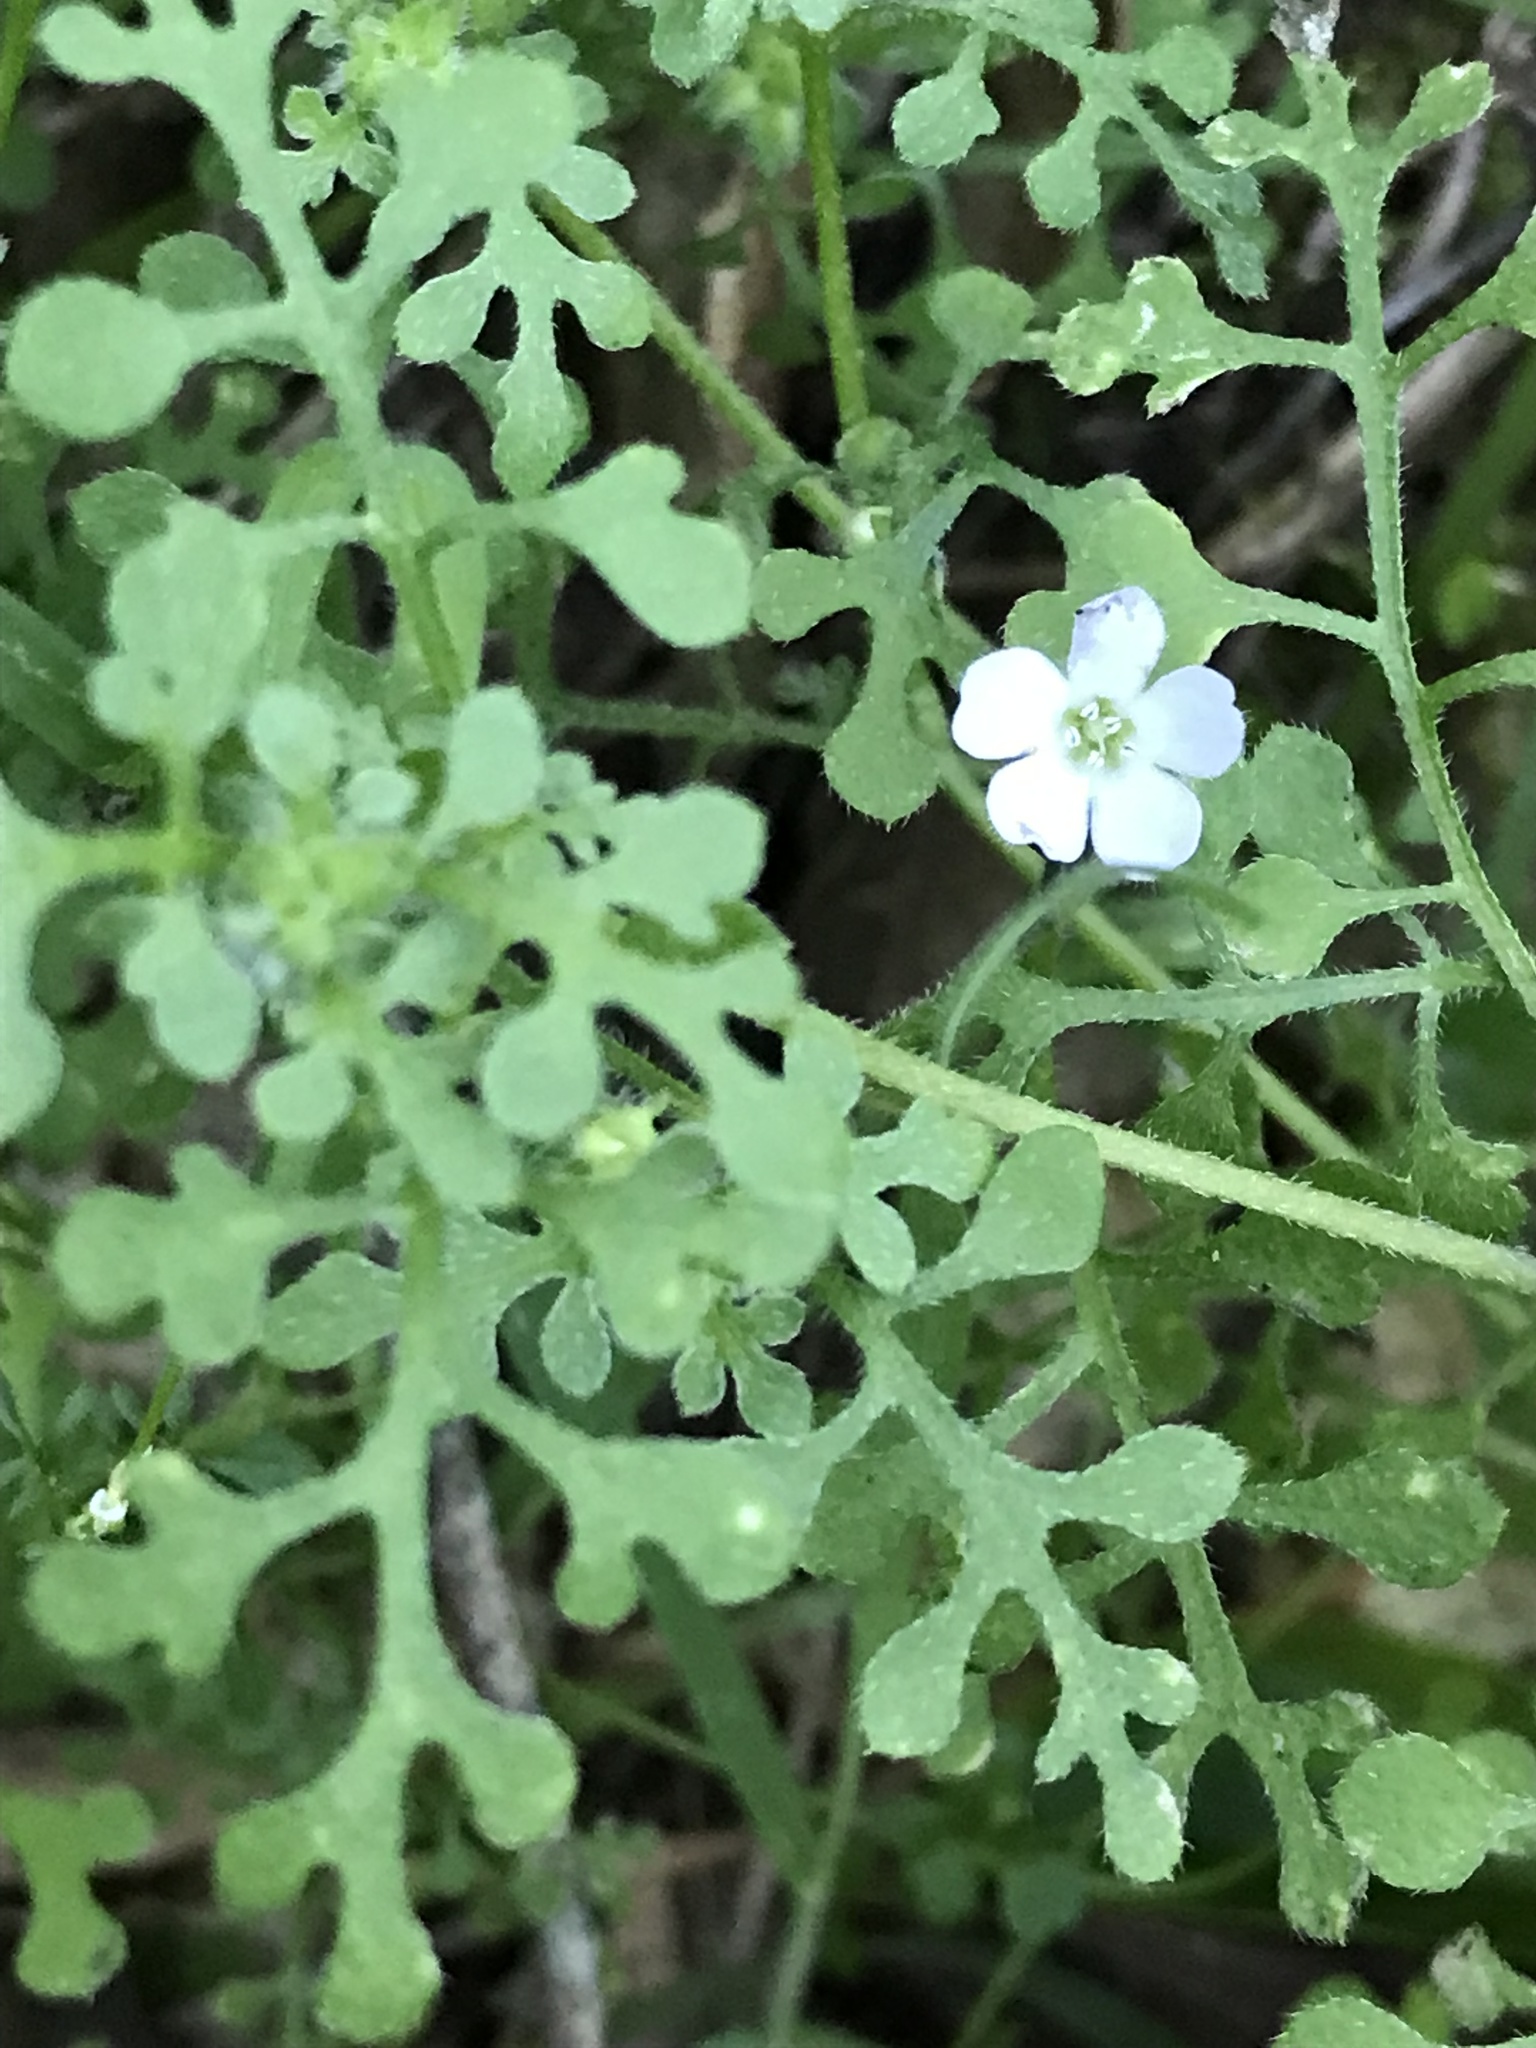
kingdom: Plantae
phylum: Tracheophyta
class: Magnoliopsida
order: Boraginales
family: Hydrophyllaceae
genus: Nemophila
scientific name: Nemophila heterophylla
